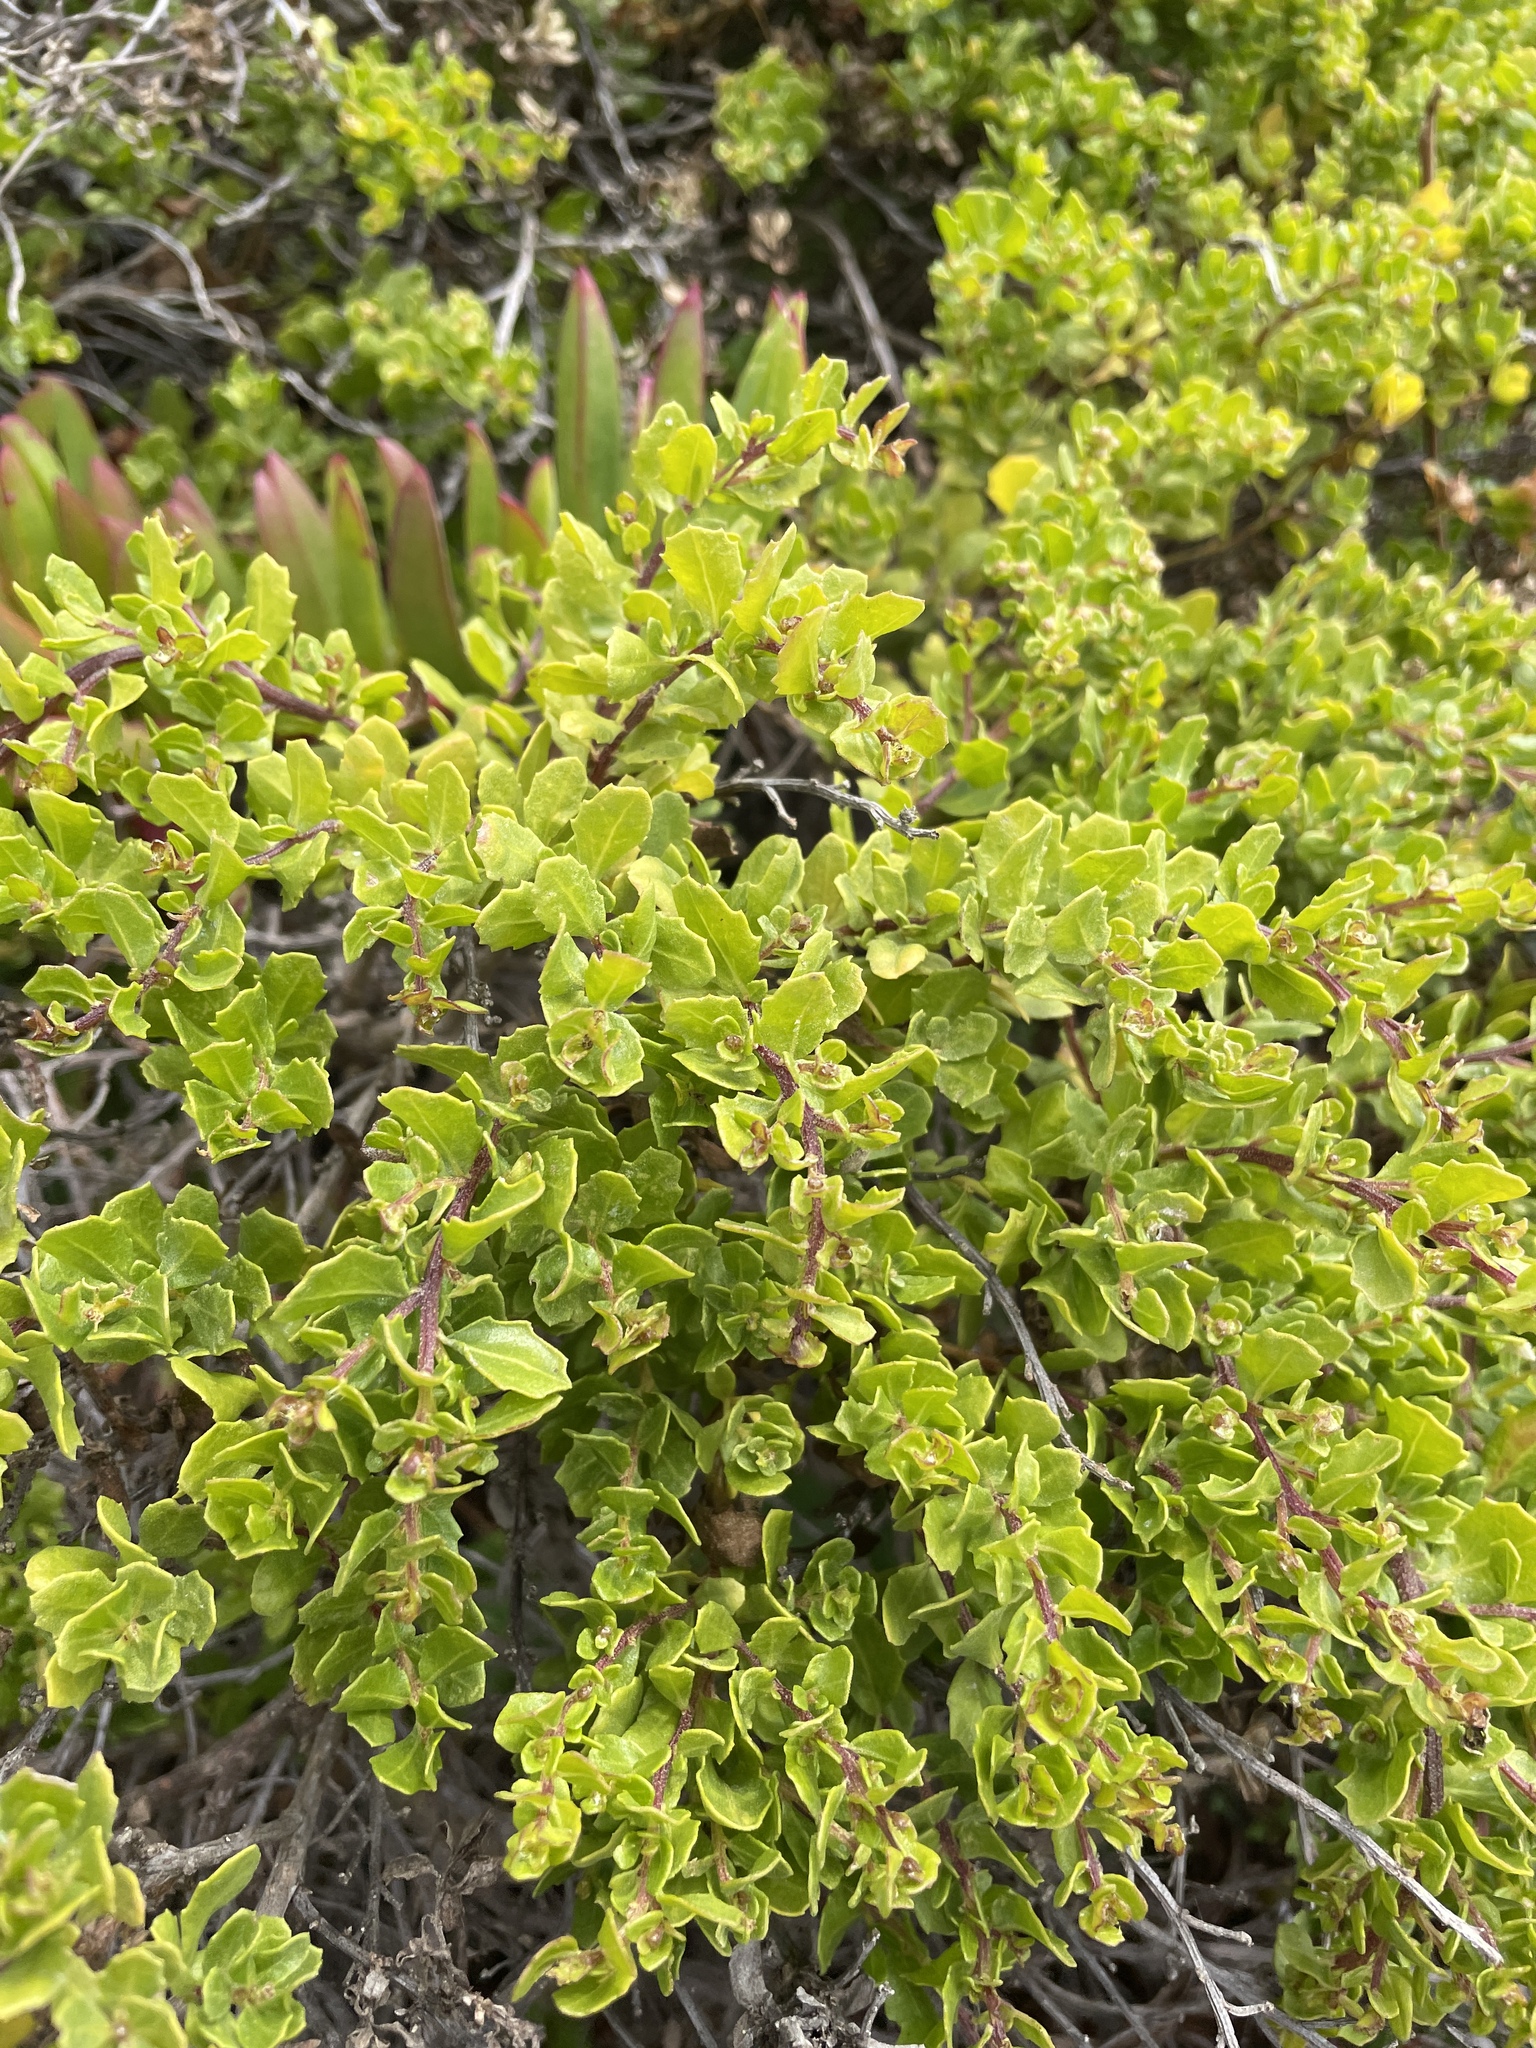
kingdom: Plantae
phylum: Tracheophyta
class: Magnoliopsida
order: Asterales
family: Asteraceae
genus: Baccharis
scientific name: Baccharis pilularis
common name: Coyotebrush
